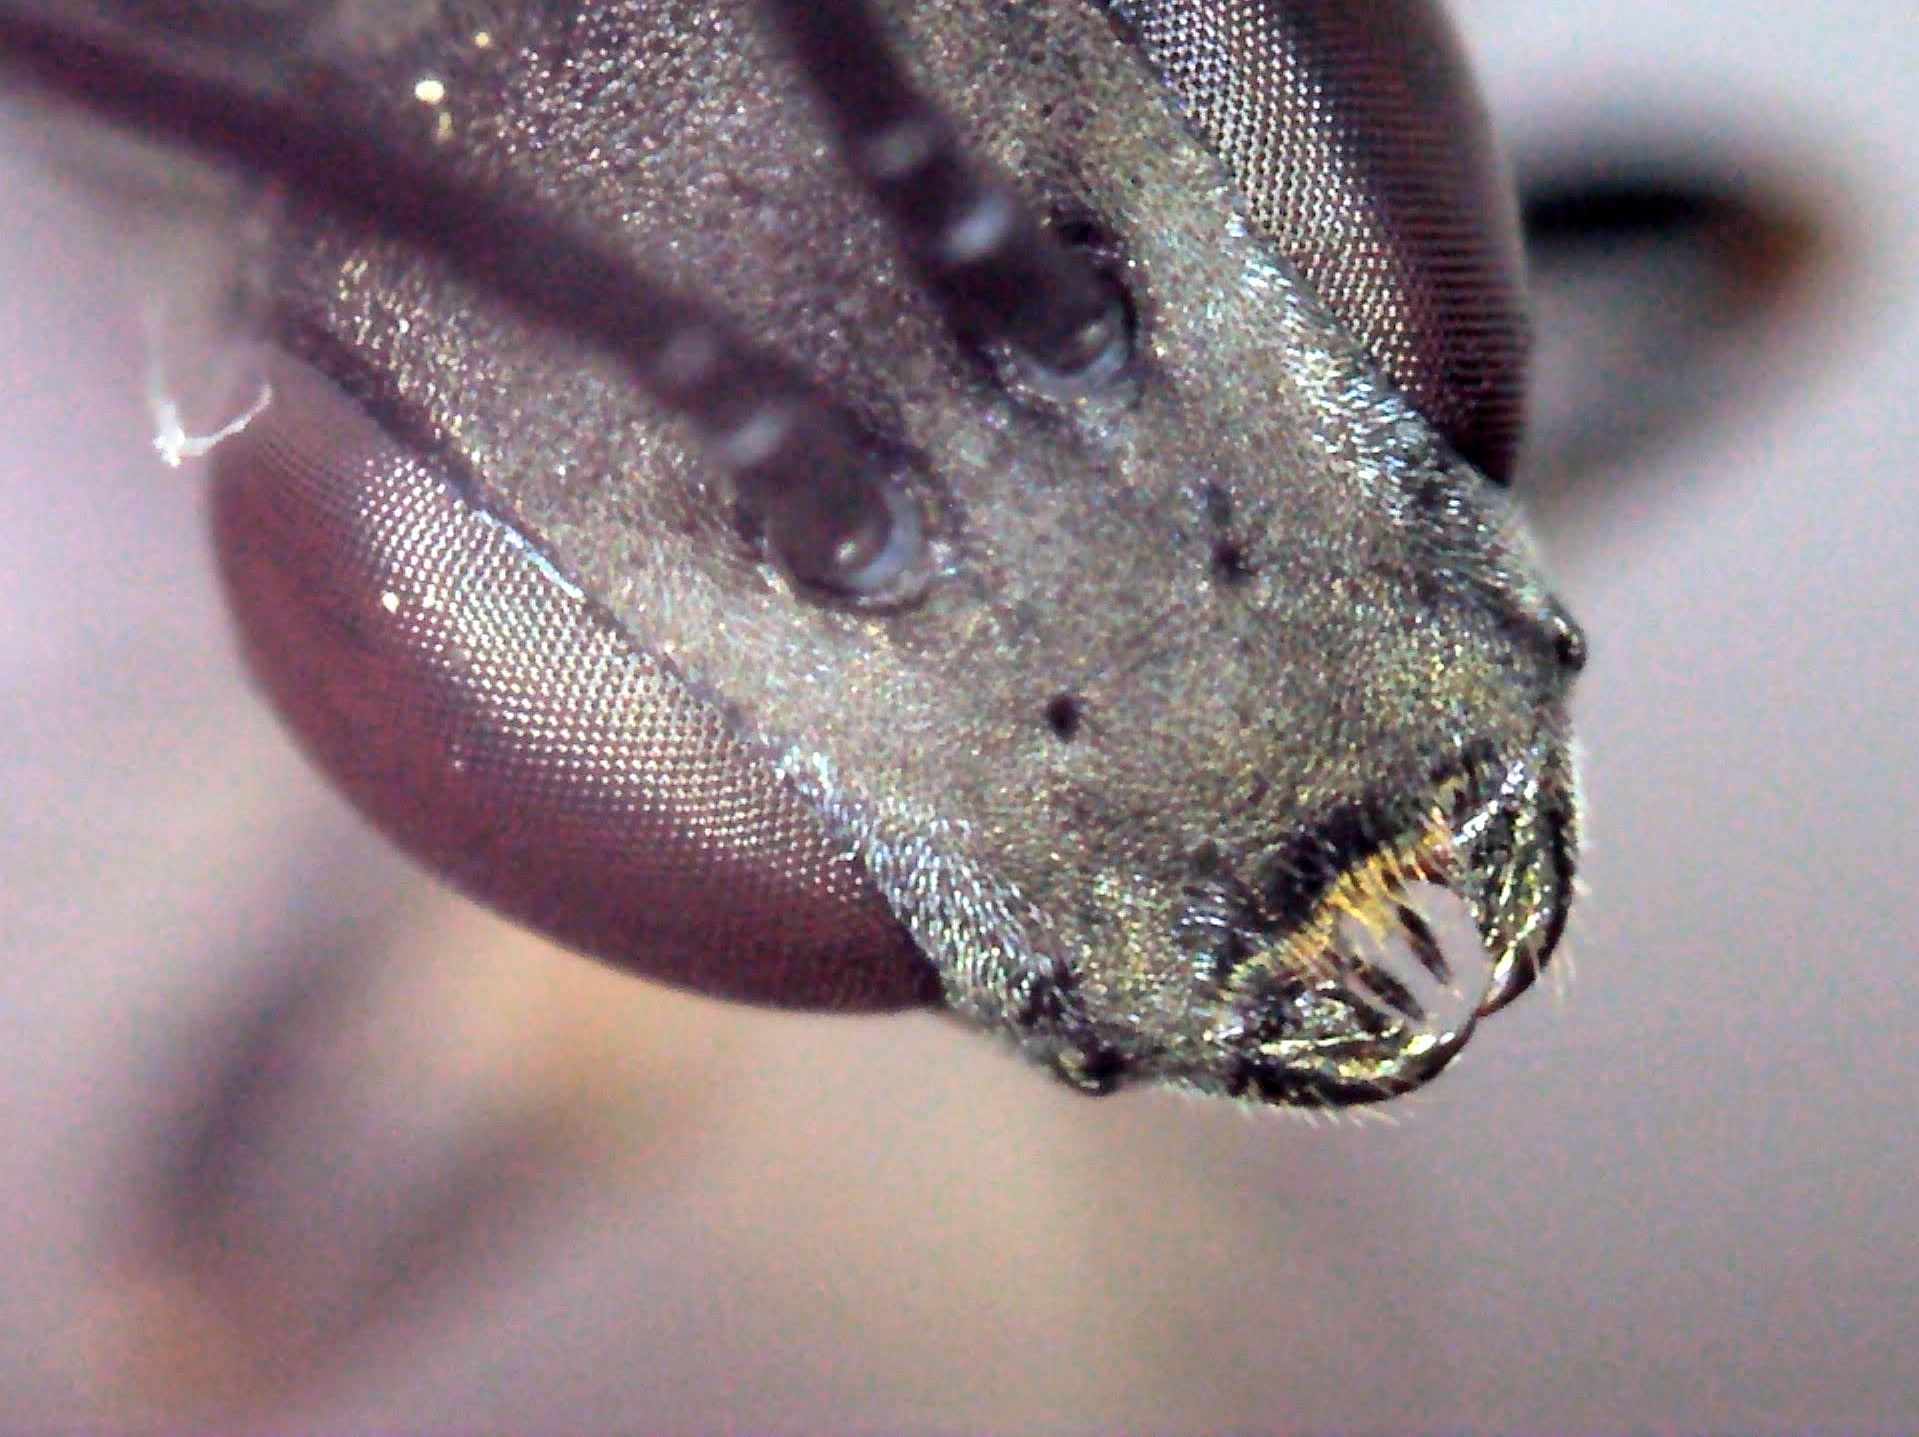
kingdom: Animalia
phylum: Arthropoda
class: Insecta
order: Hymenoptera
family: Gasteruptiidae
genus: Gasteruption
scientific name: Gasteruption minutum
